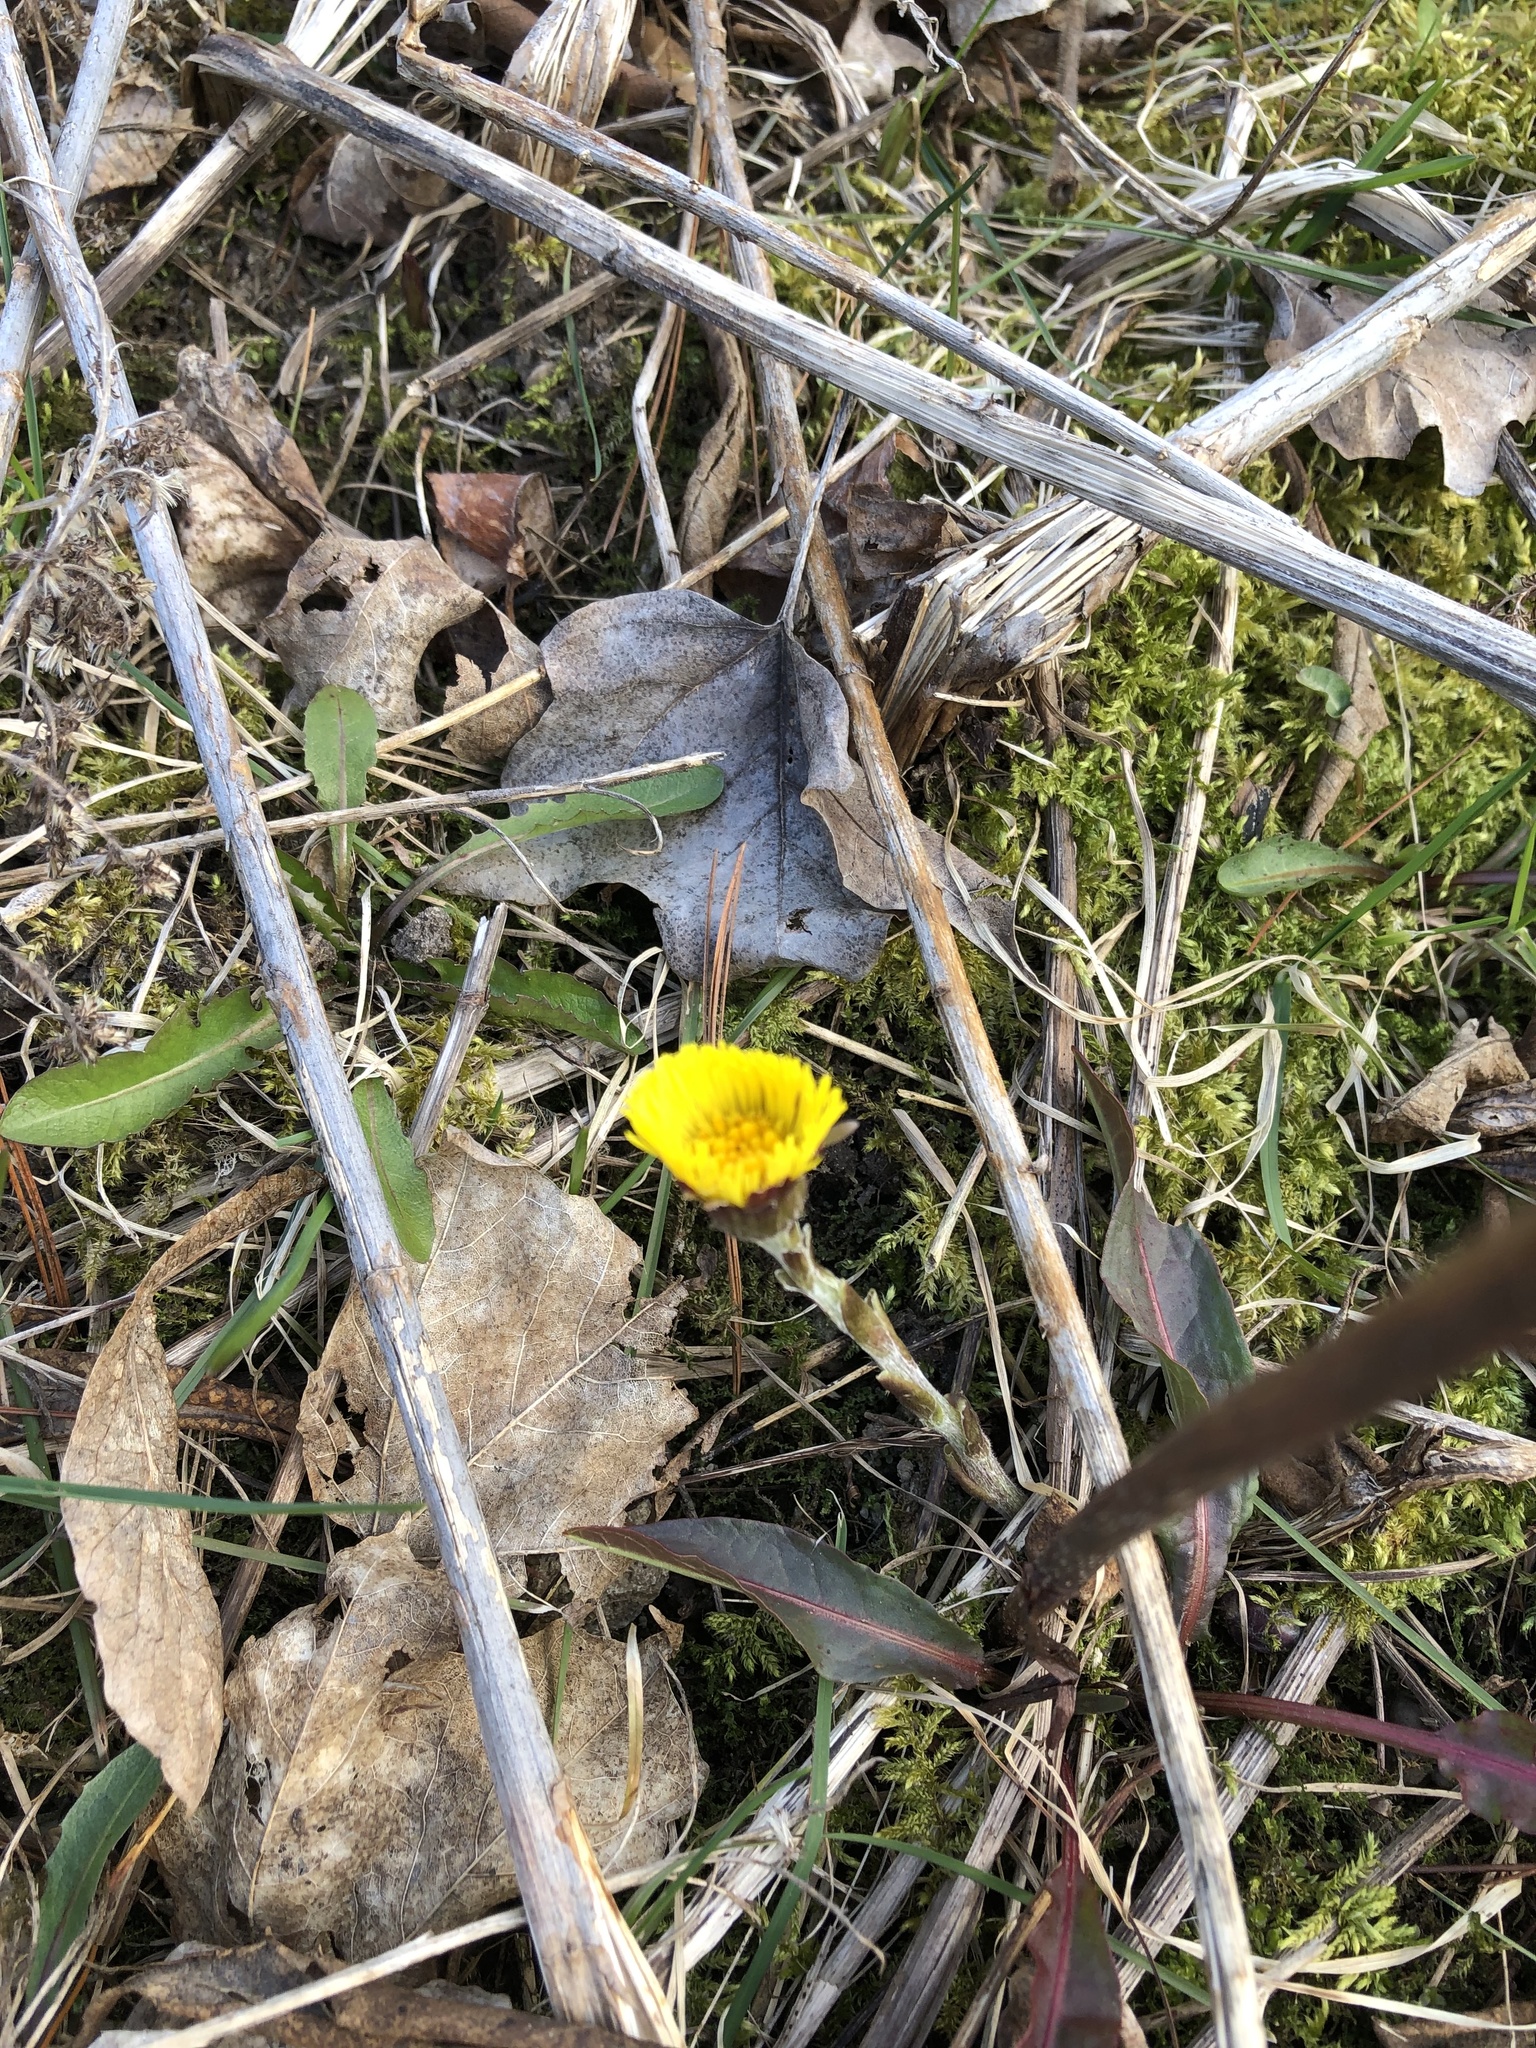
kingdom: Plantae
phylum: Tracheophyta
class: Magnoliopsida
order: Asterales
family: Asteraceae
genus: Tussilago
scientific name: Tussilago farfara
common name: Coltsfoot
